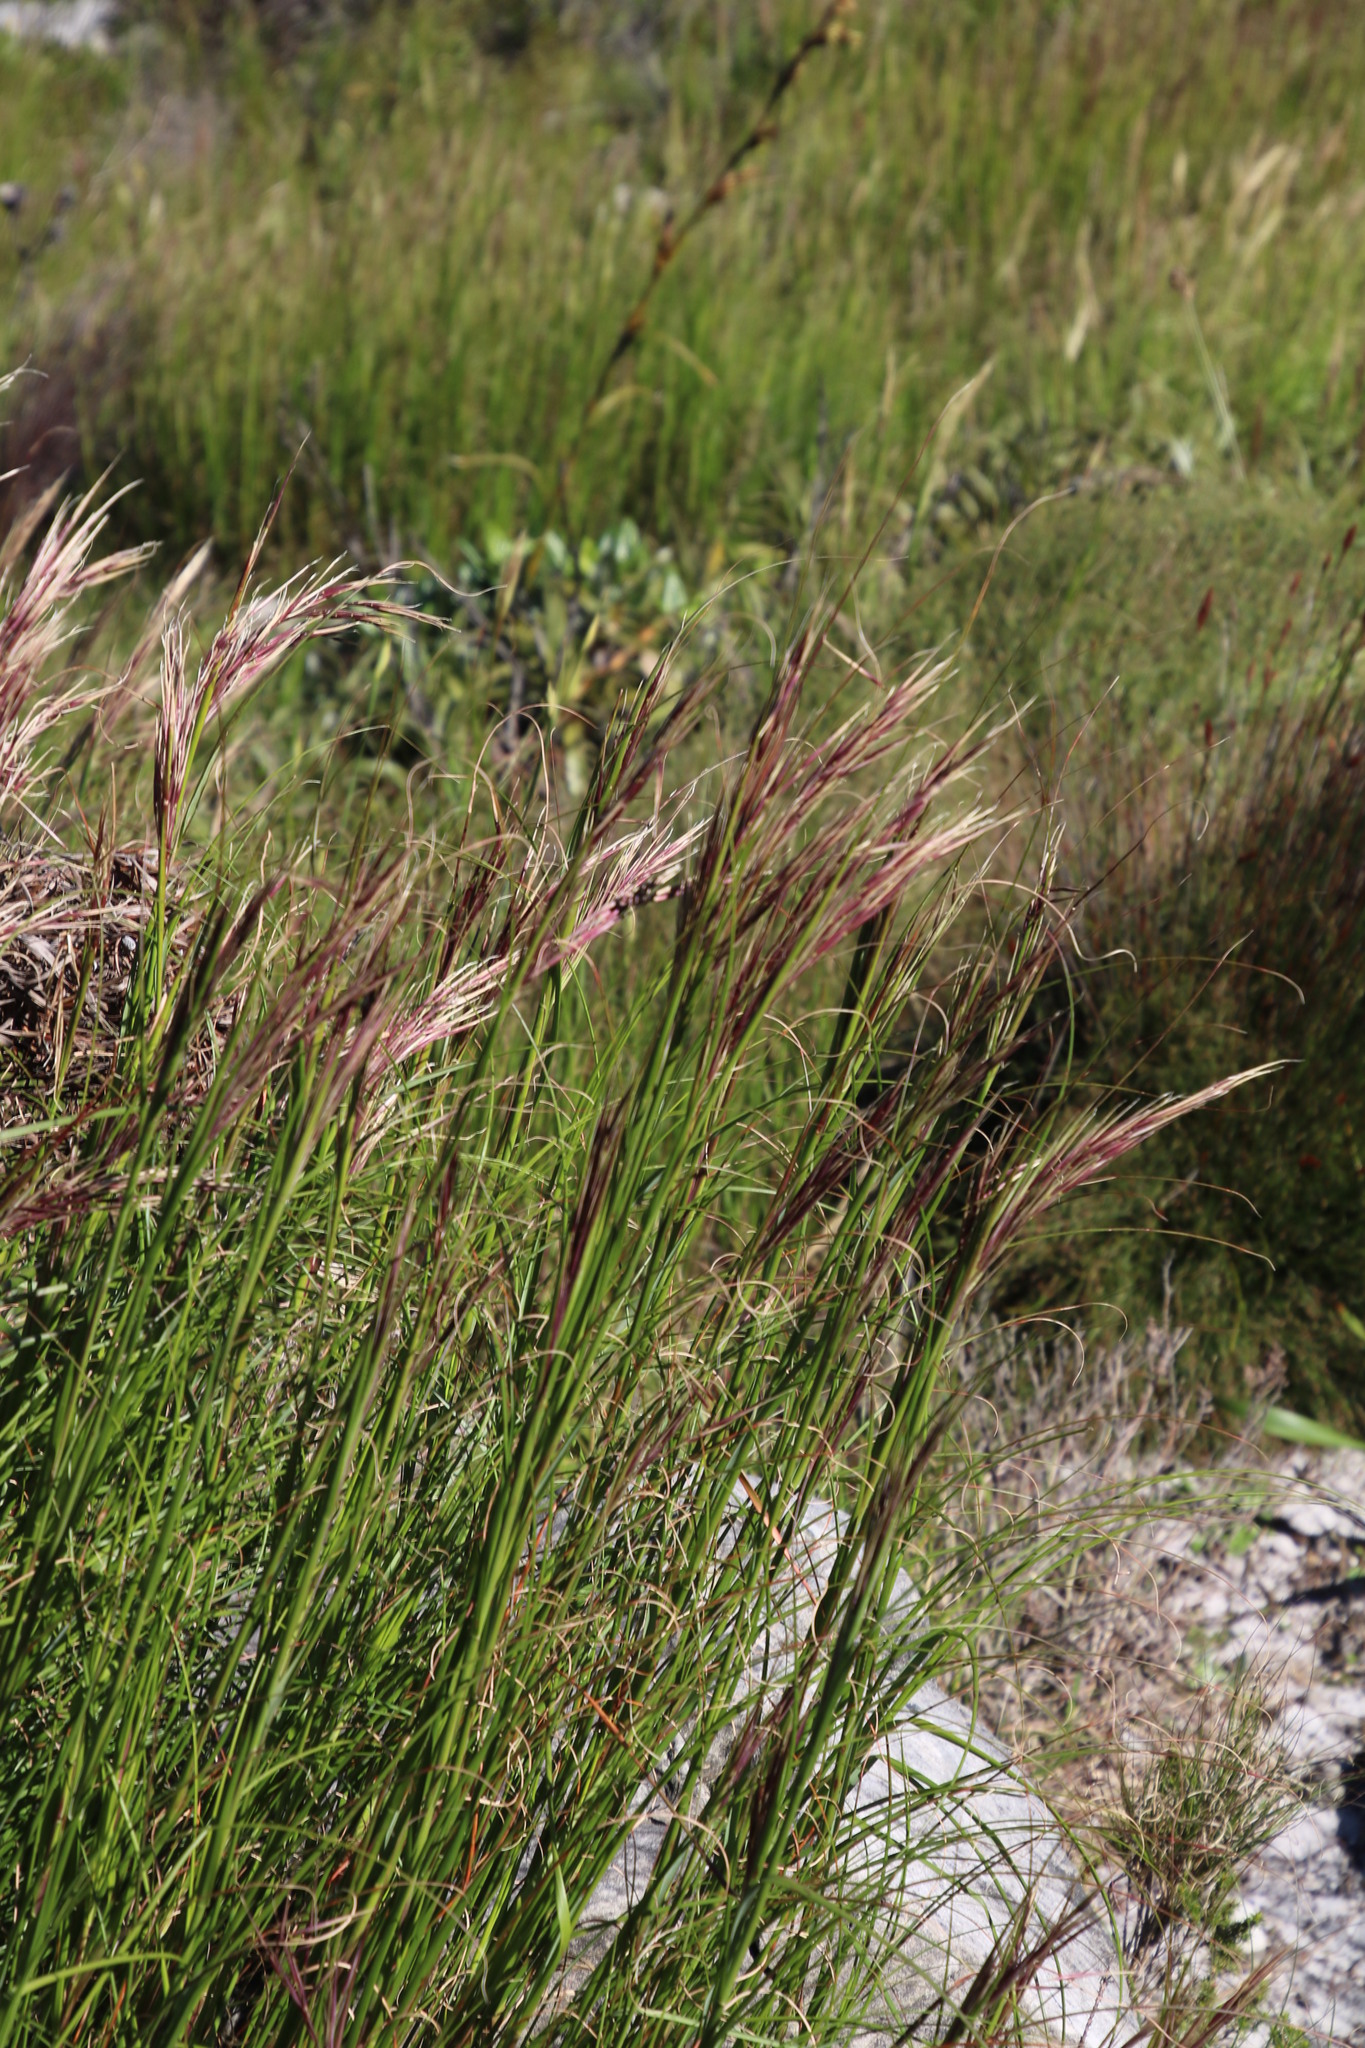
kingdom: Plantae
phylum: Tracheophyta
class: Liliopsida
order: Poales
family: Poaceae
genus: Pseudopentameris
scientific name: Pseudopentameris macrantha
